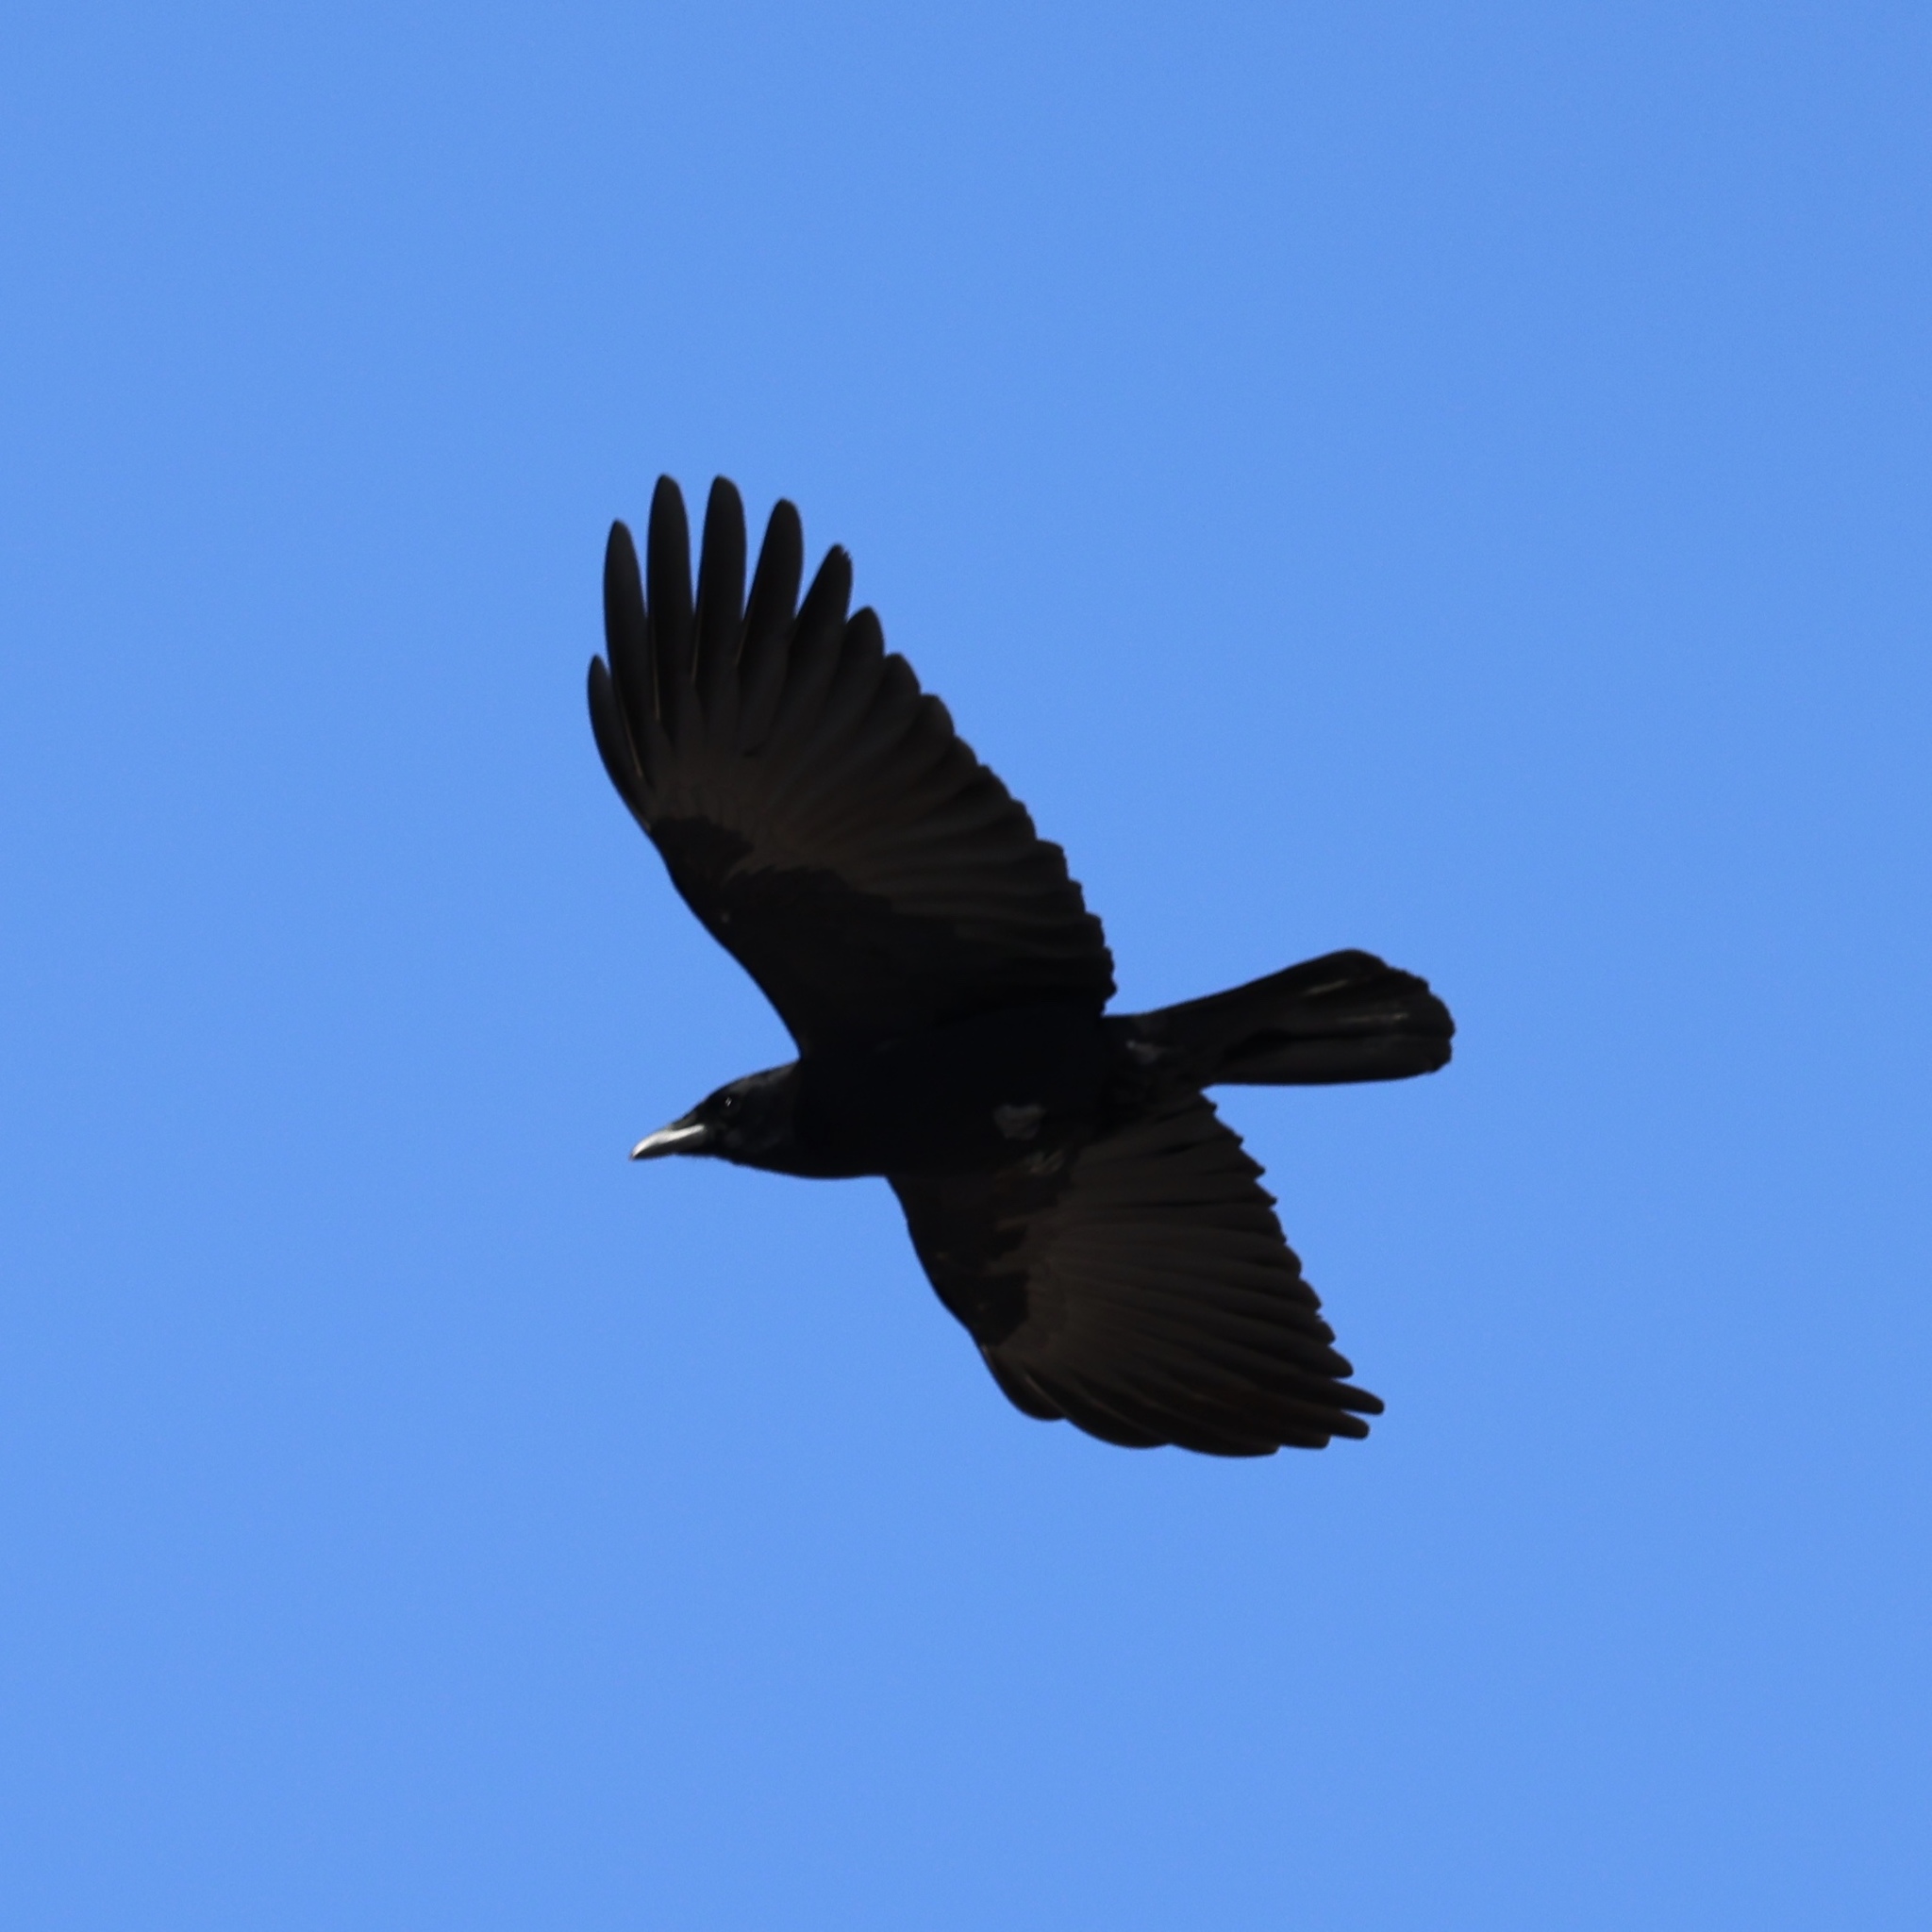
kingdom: Animalia
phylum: Chordata
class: Aves
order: Passeriformes
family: Corvidae
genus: Corvus
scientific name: Corvus brachyrhynchos
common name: American crow
